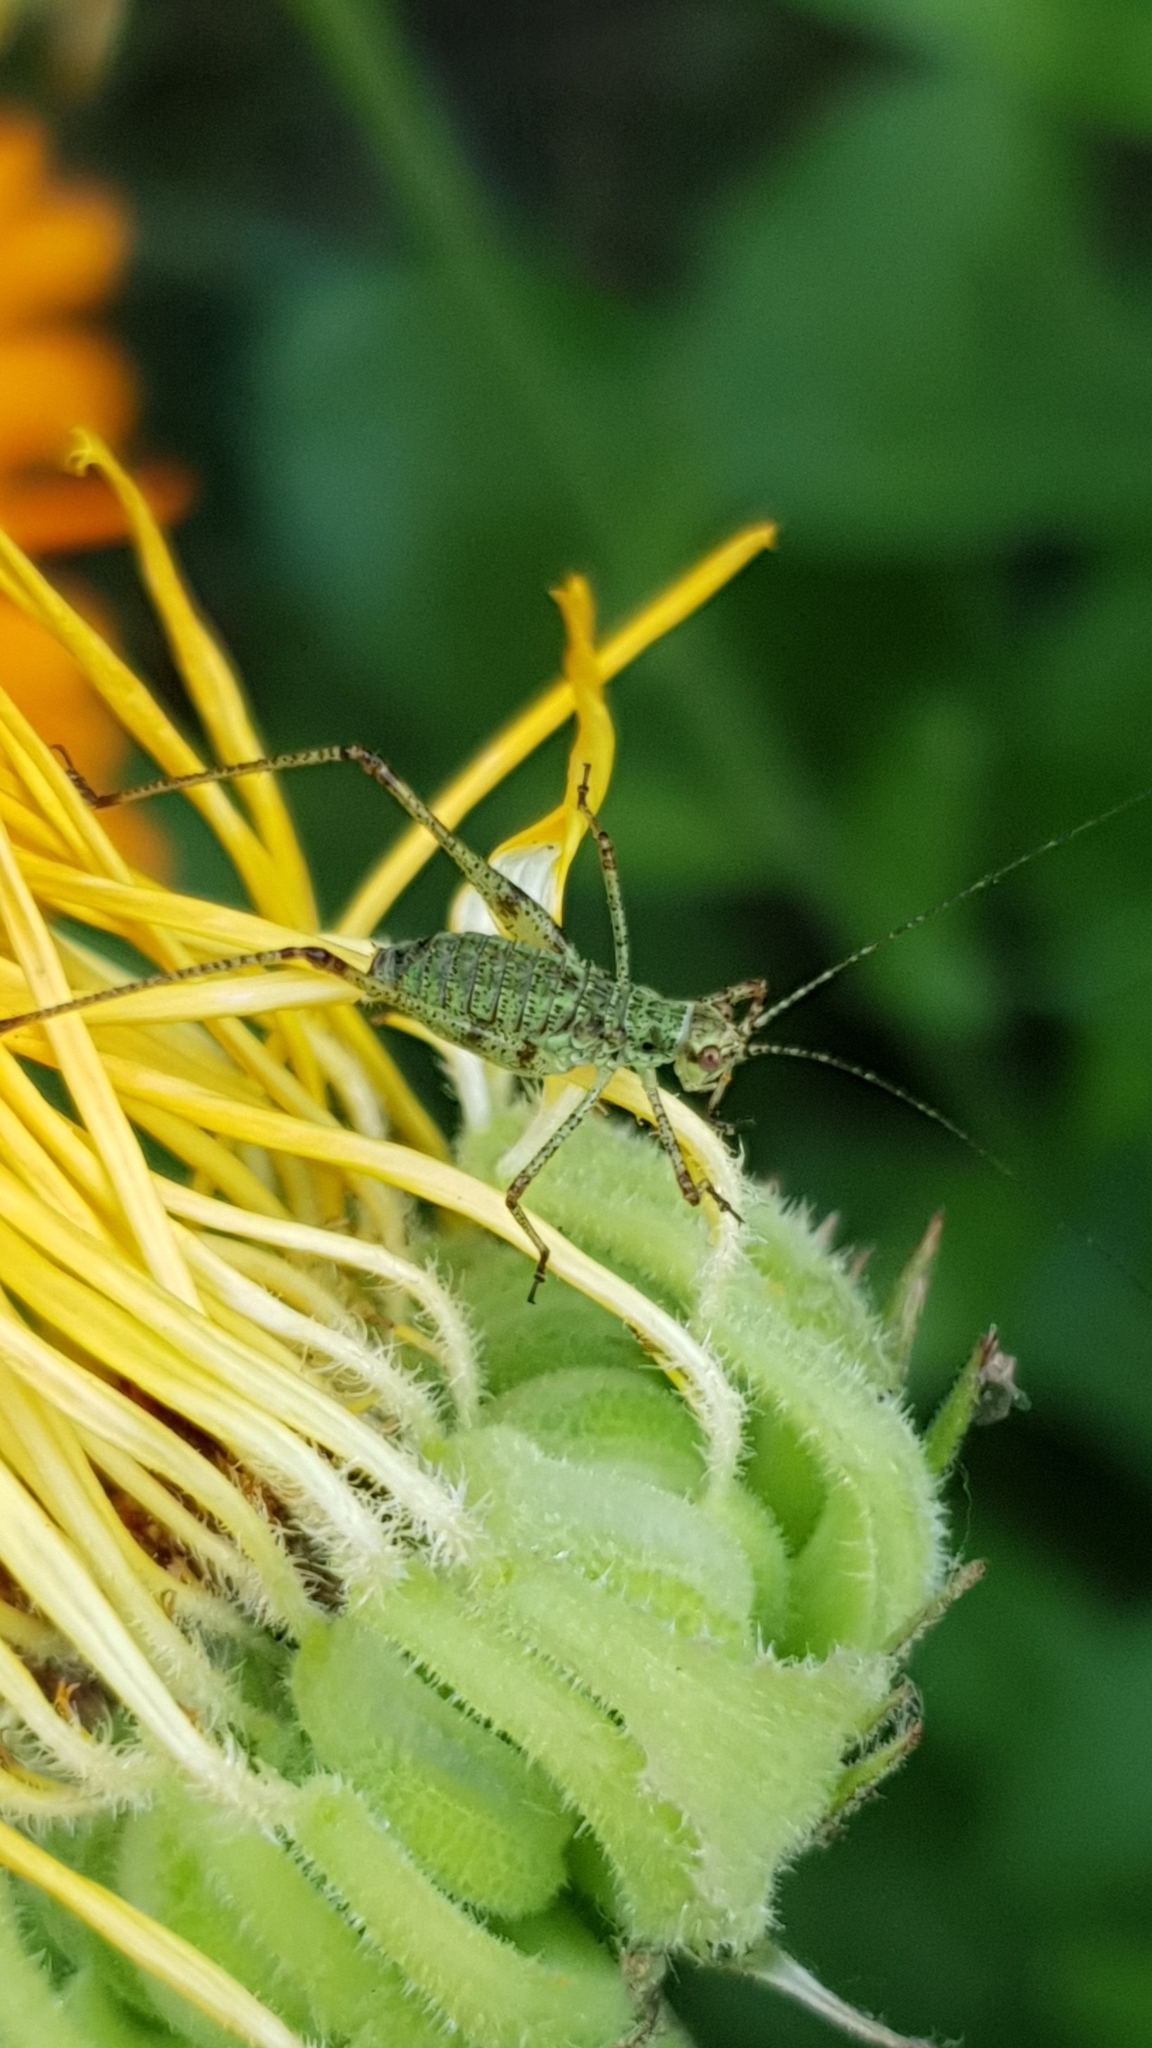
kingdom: Animalia
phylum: Arthropoda
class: Insecta
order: Orthoptera
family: Tettigoniidae
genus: Phaneroptera
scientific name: Phaneroptera nana
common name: Southern sickle bush-cricket
